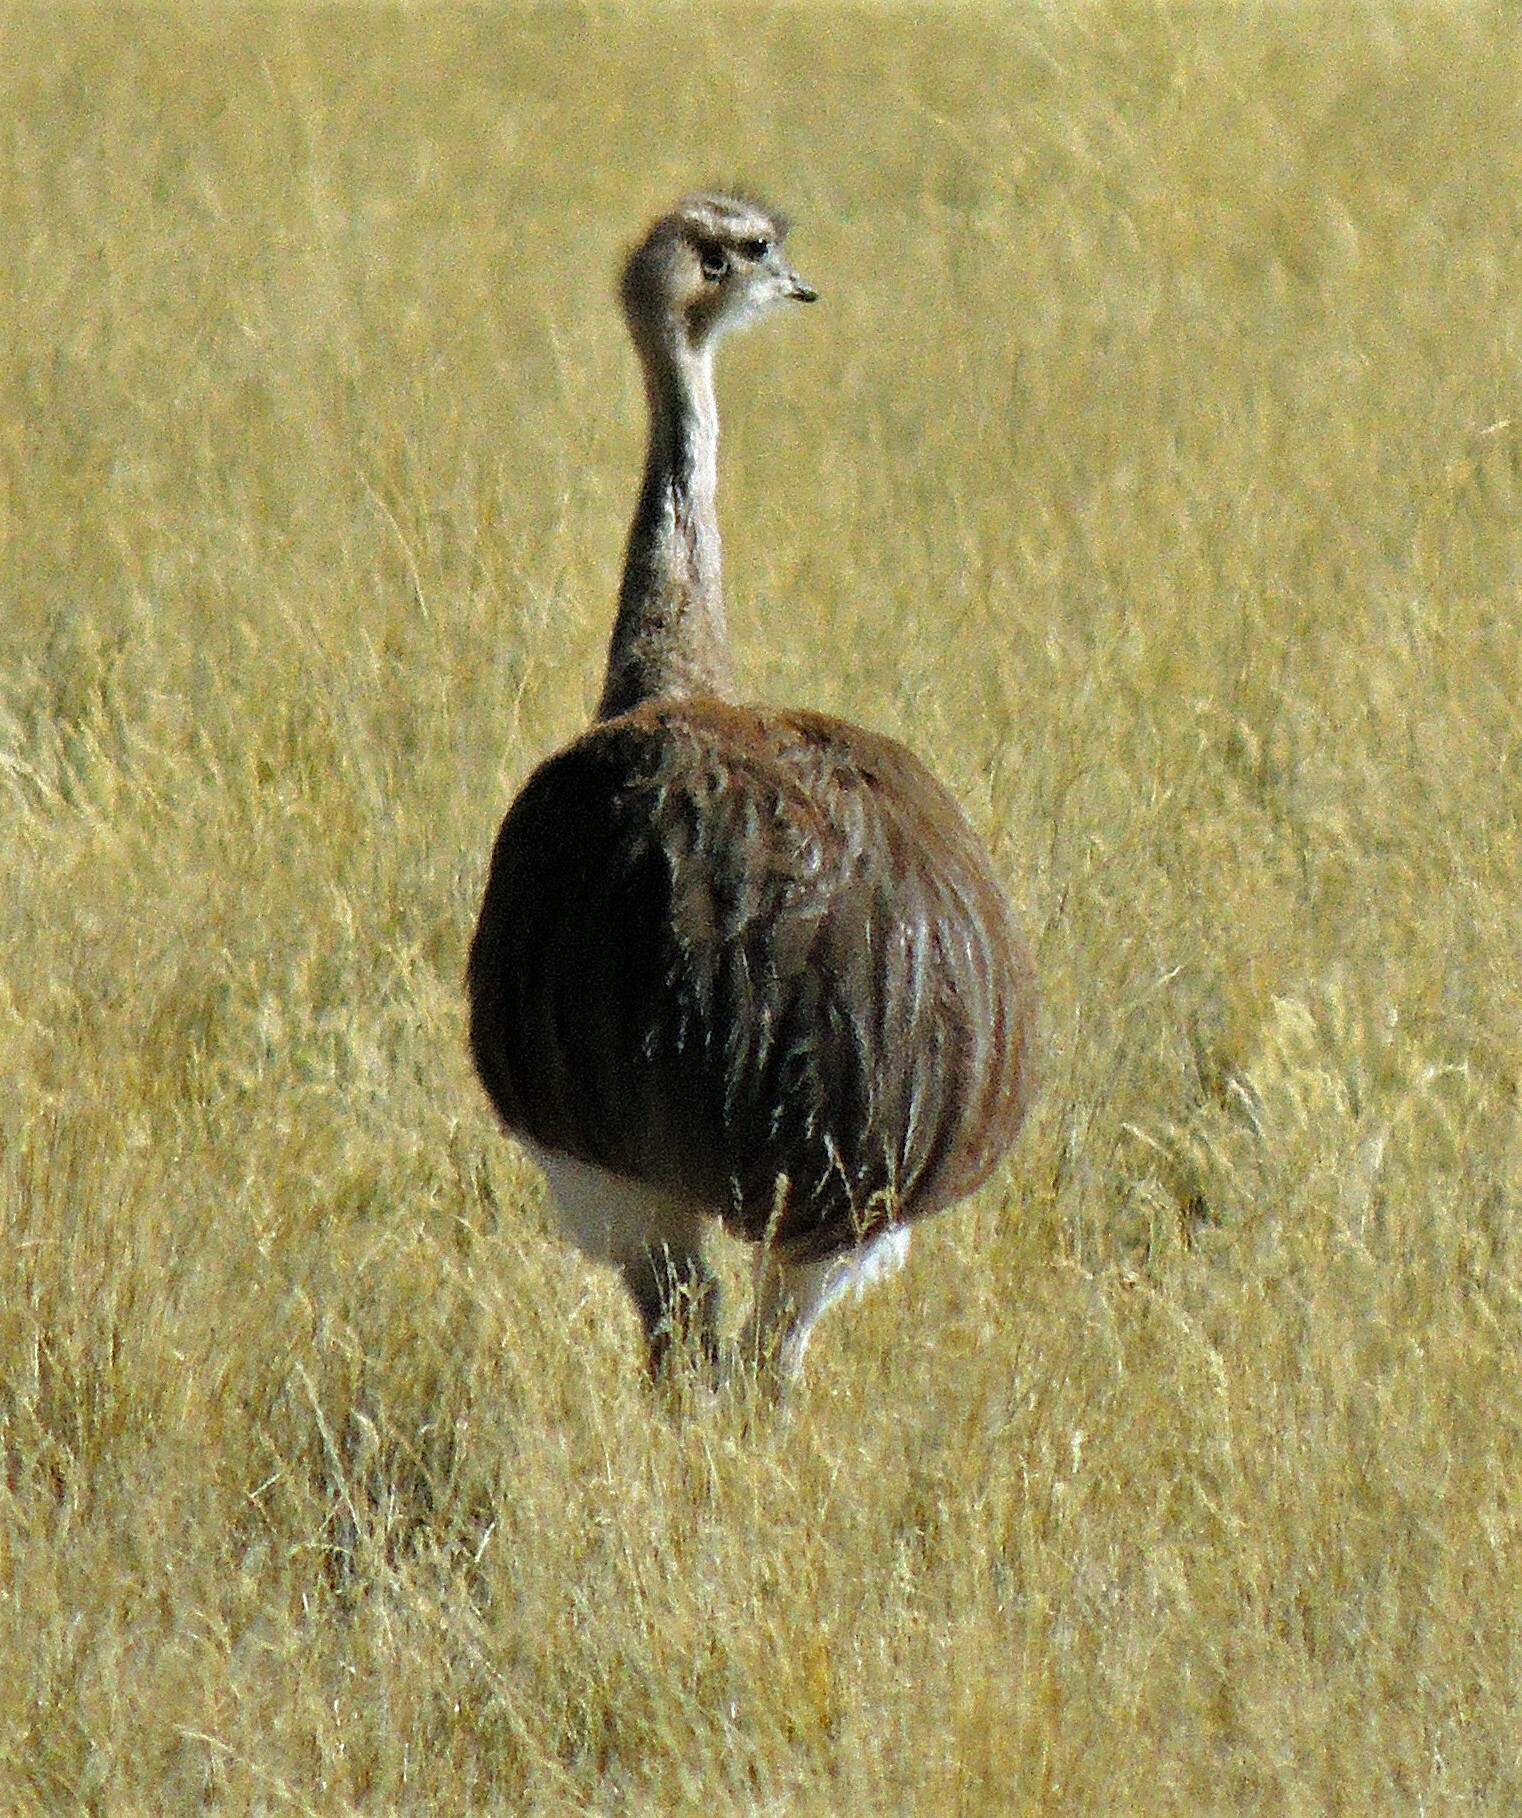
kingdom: Animalia
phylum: Chordata
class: Aves
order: Rheiformes
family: Rheidae
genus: Rhea
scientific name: Rhea pennata
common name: Lesser rhea
